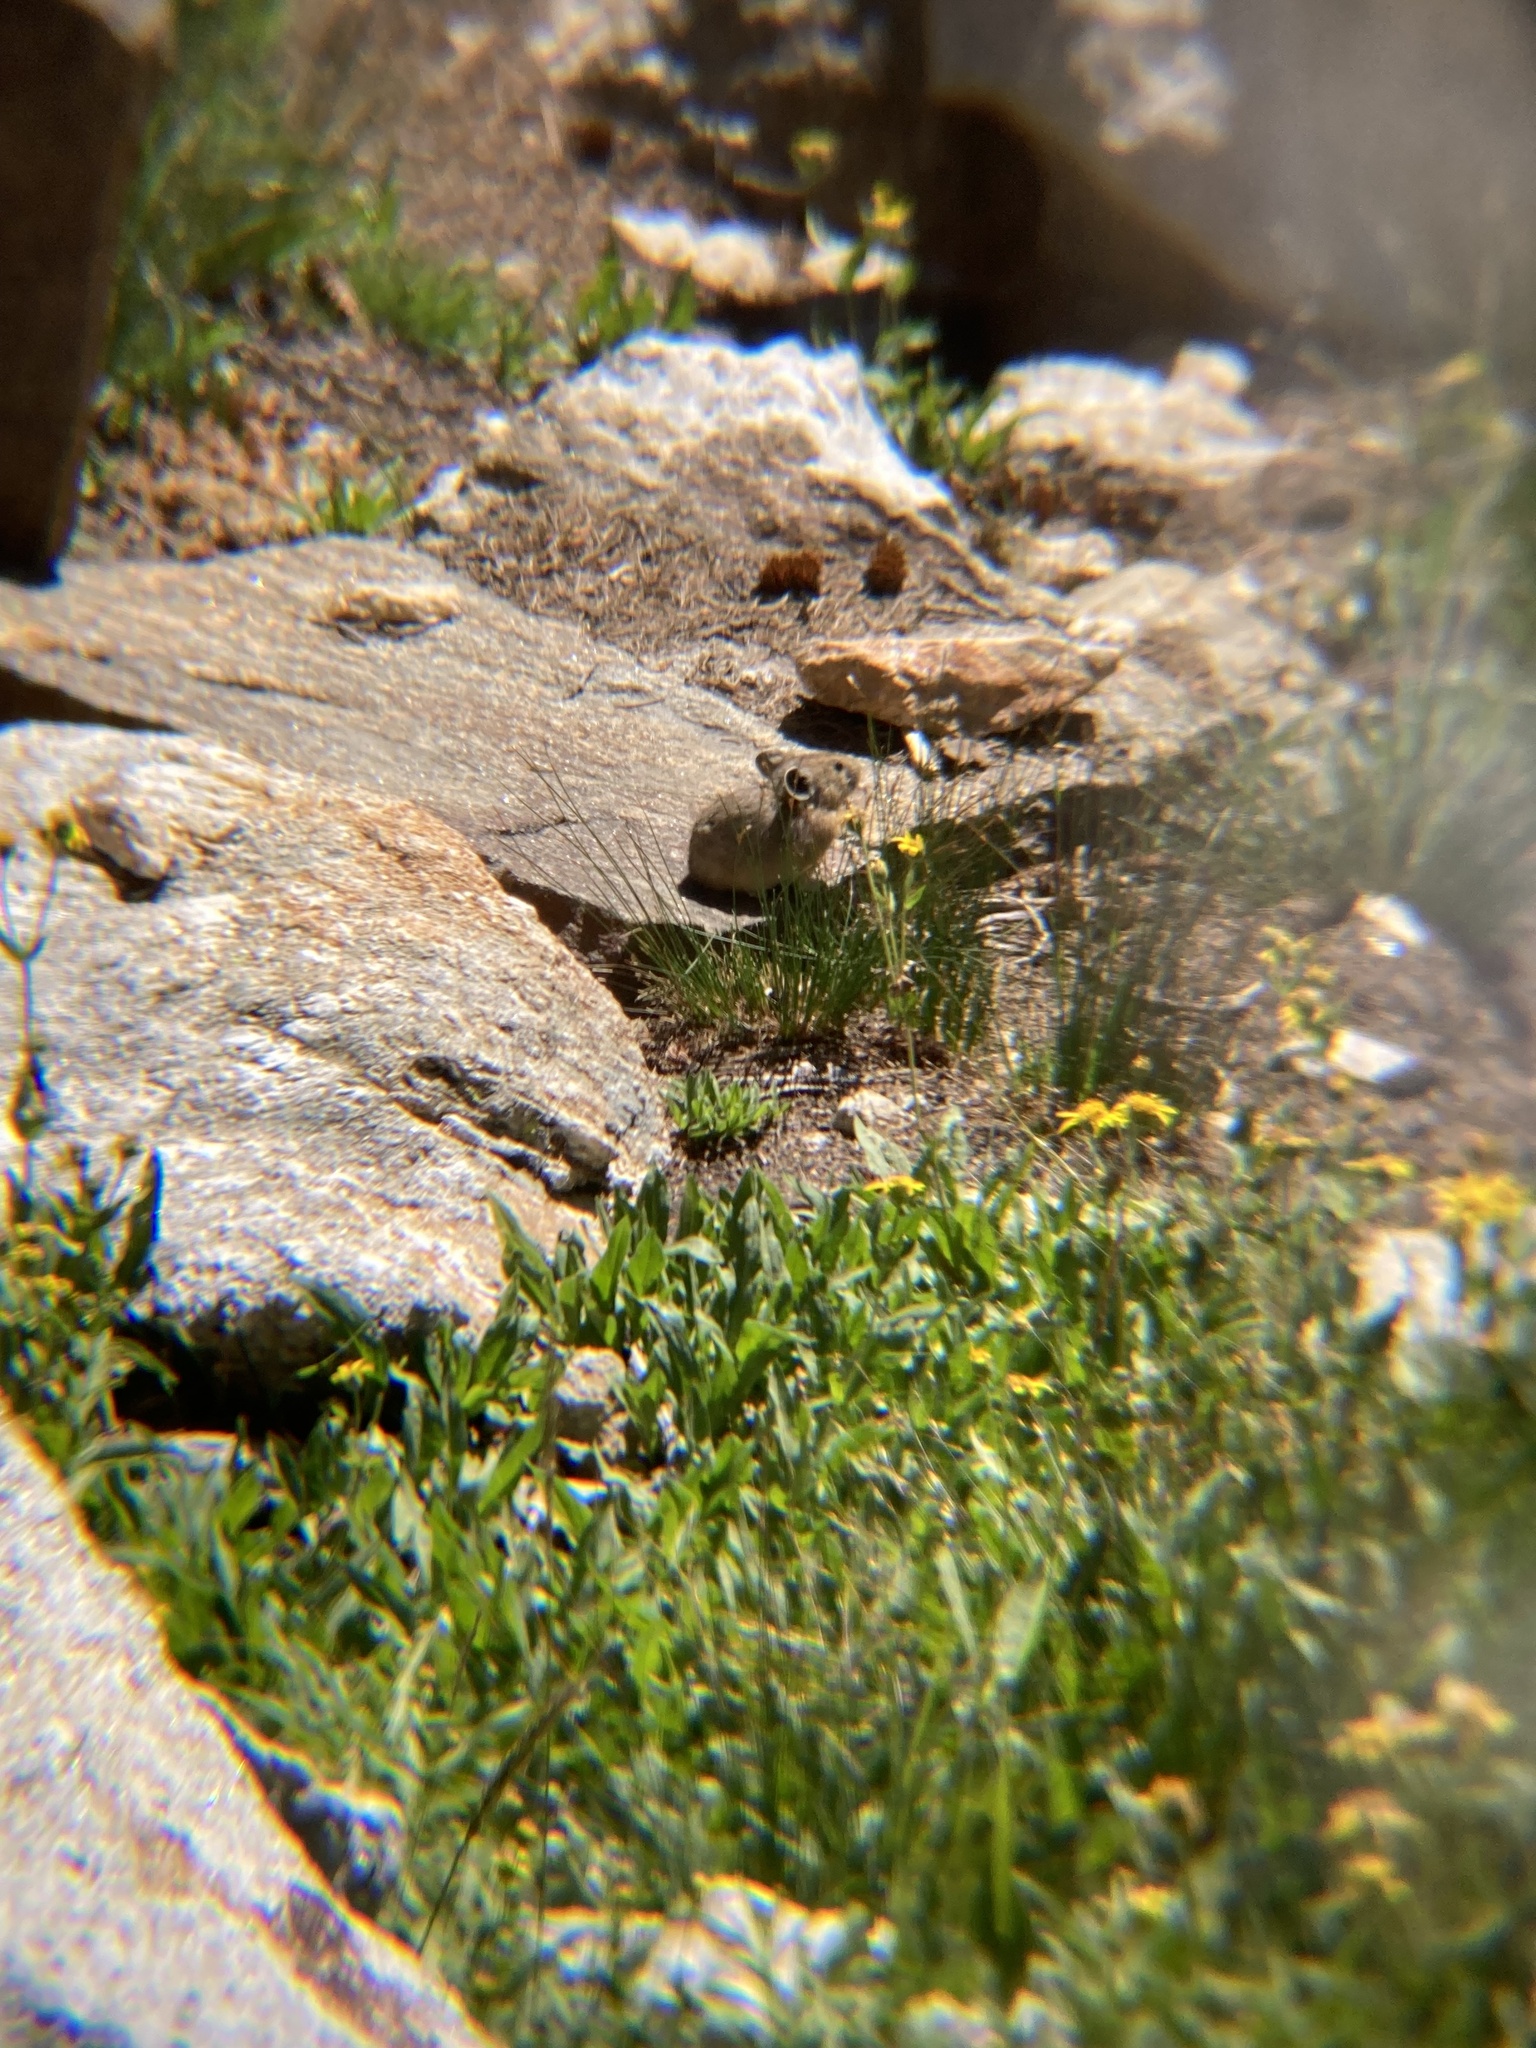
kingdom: Animalia
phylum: Chordata
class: Mammalia
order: Lagomorpha
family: Ochotonidae
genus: Ochotona
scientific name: Ochotona princeps
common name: American pika
